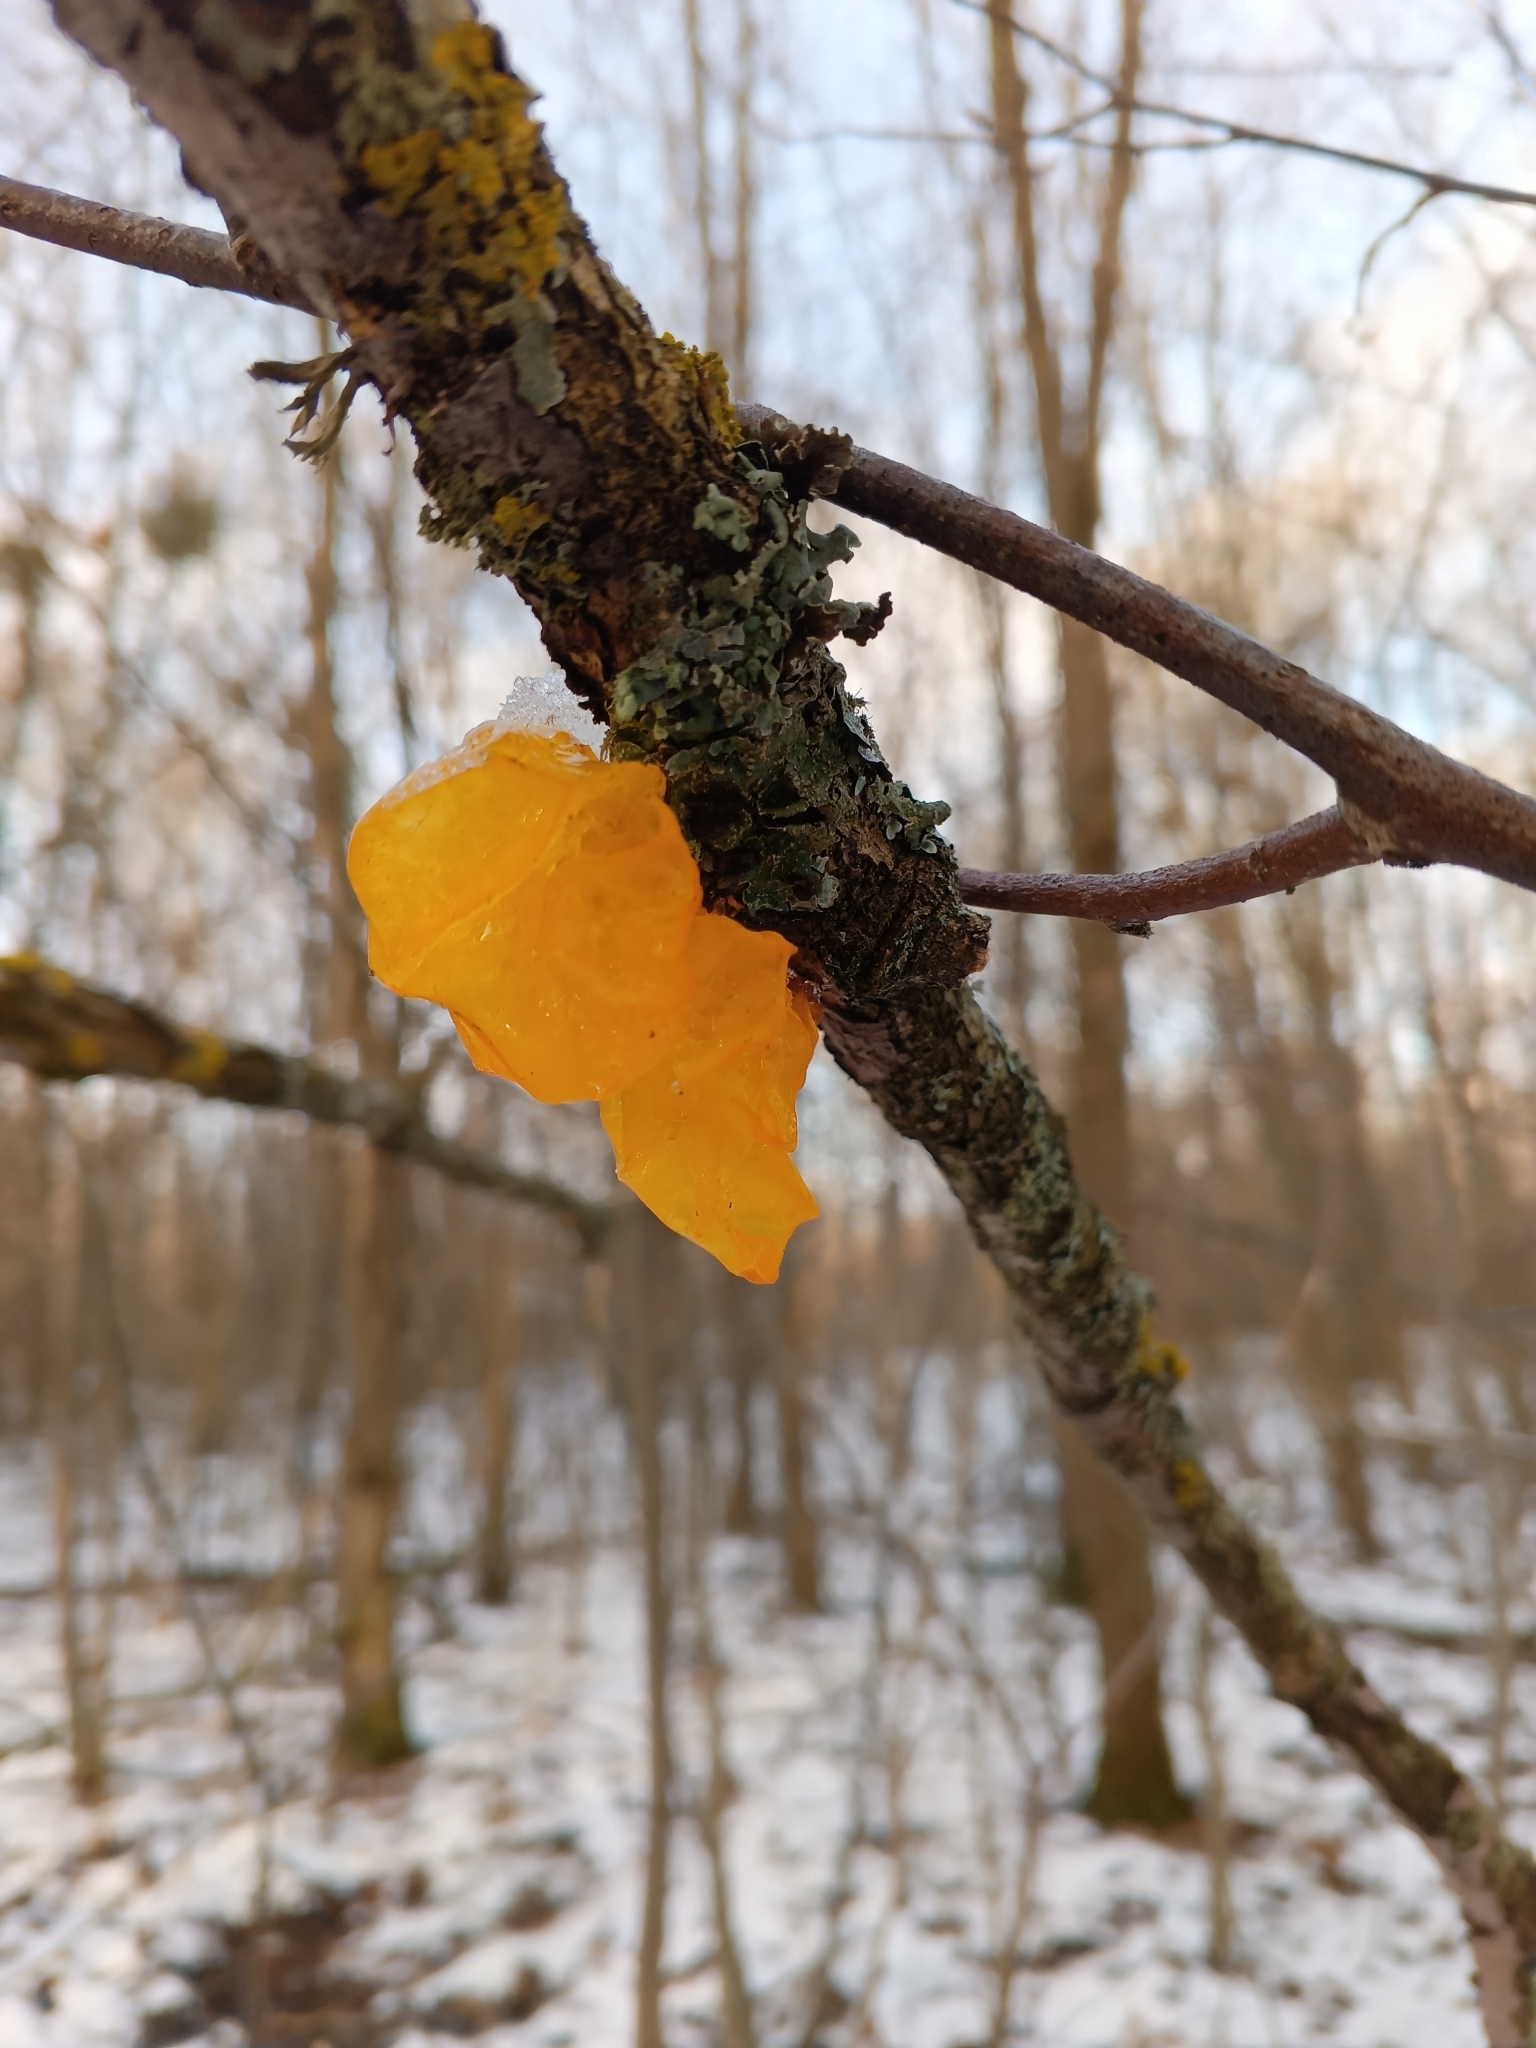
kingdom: Fungi
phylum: Basidiomycota
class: Tremellomycetes
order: Tremellales
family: Tremellaceae
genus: Tremella
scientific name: Tremella mesenterica
